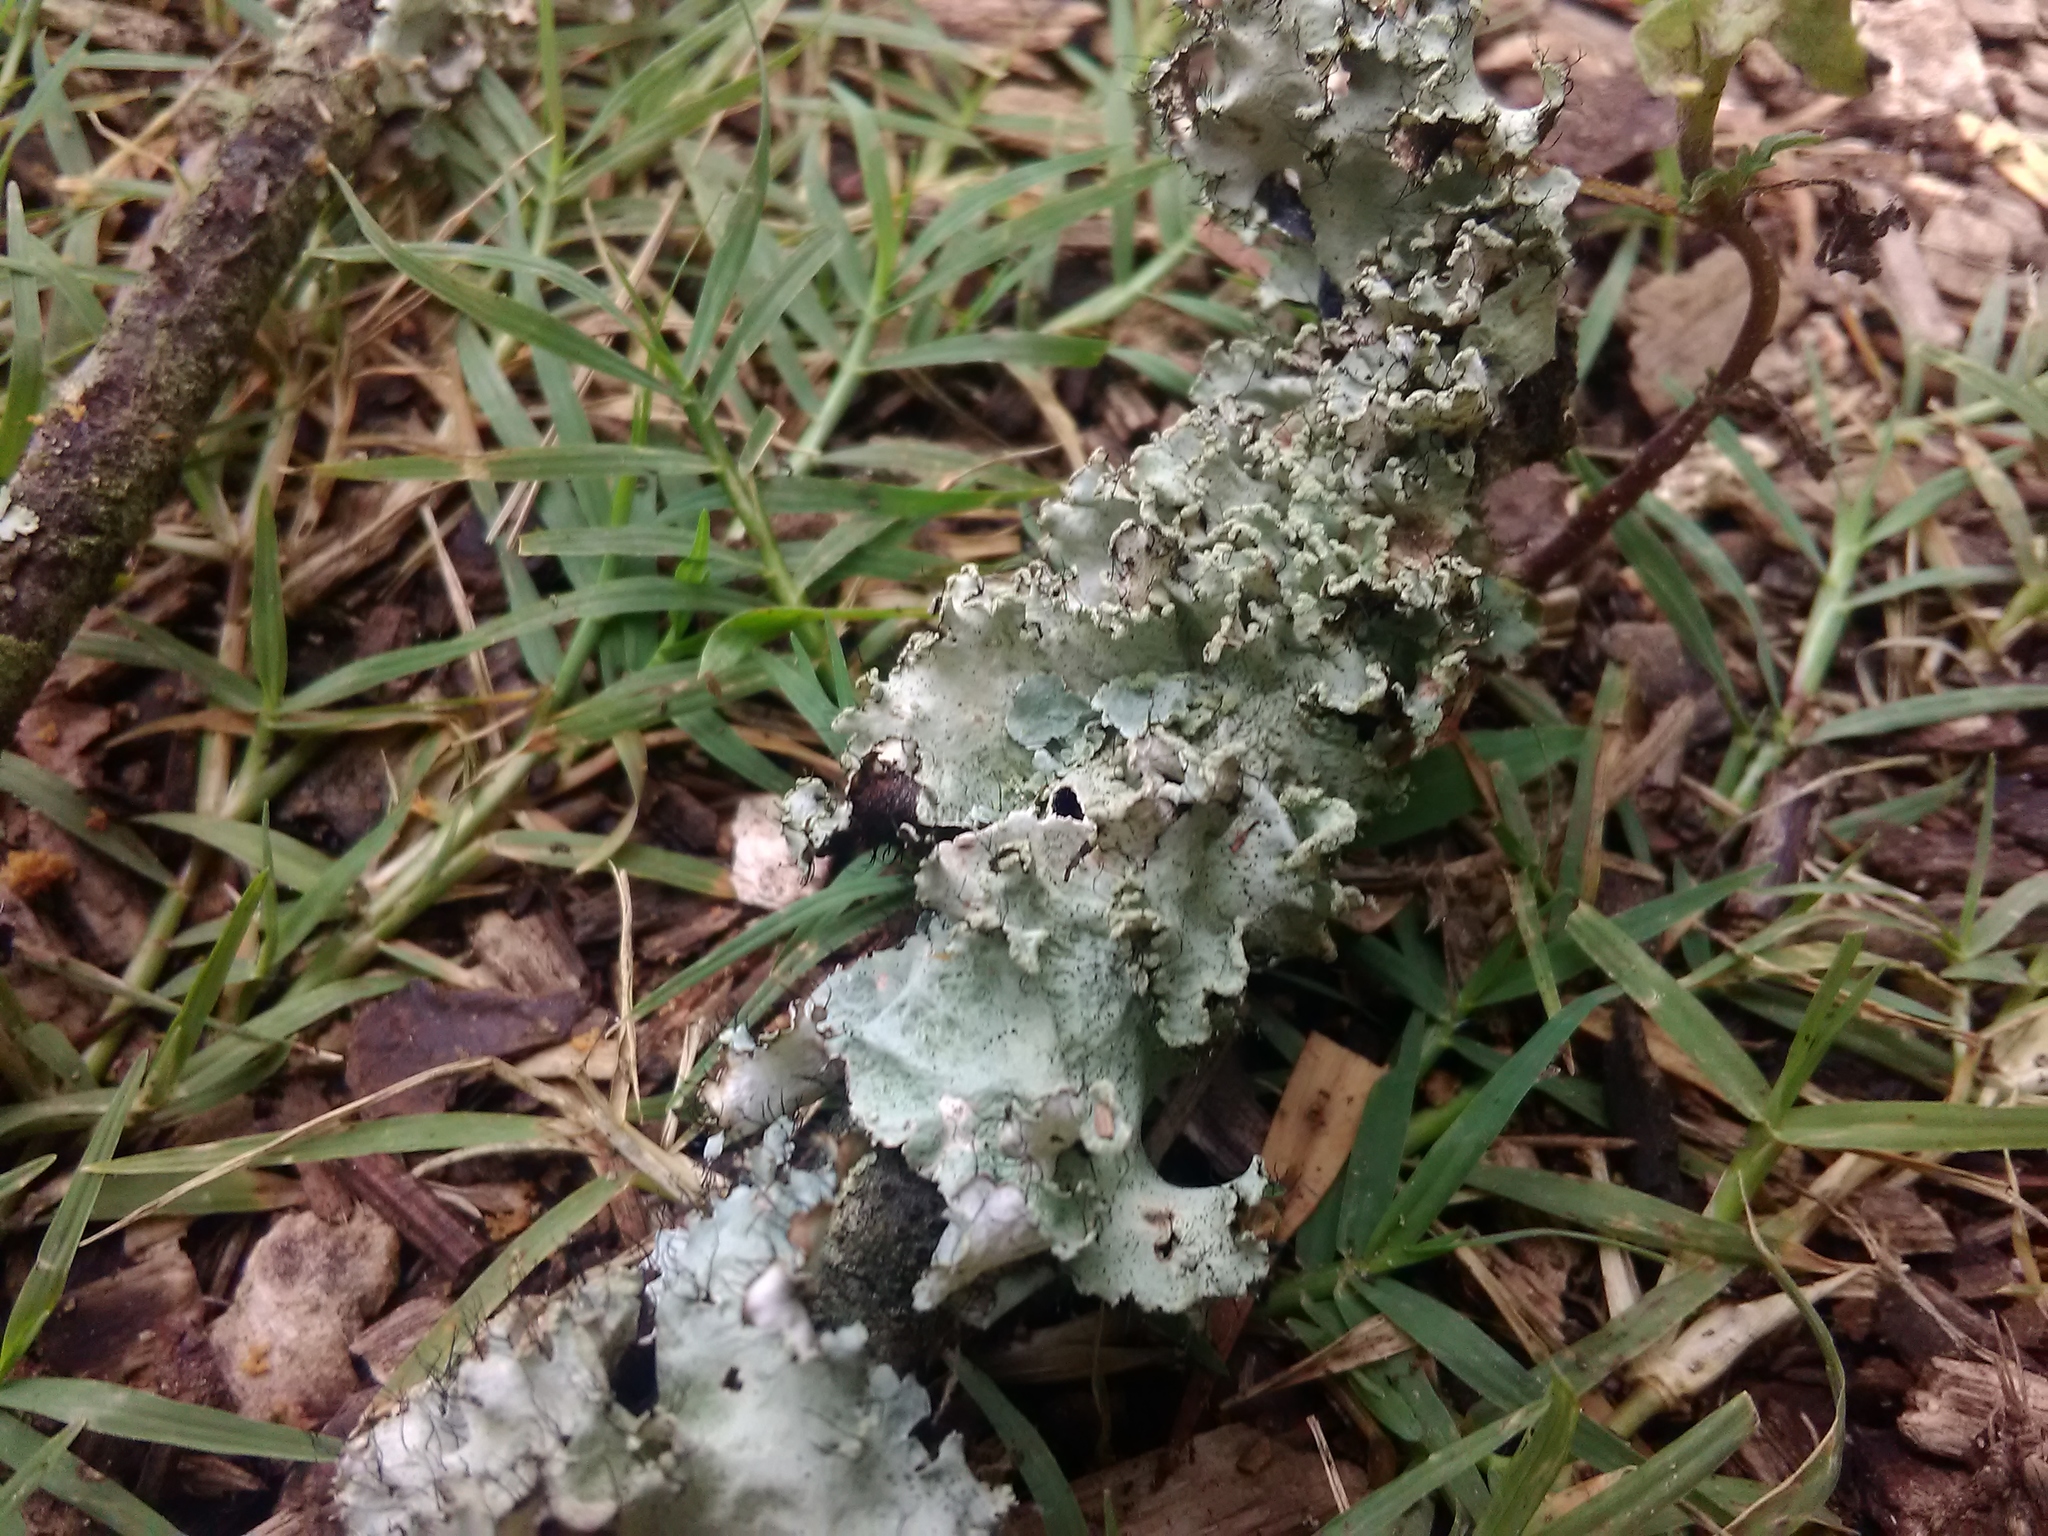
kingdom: Fungi
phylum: Ascomycota
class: Lecanoromycetes
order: Lecanorales
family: Parmeliaceae
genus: Parmotrema
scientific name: Parmotrema hypotropum
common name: Powdered ruffle lichen
